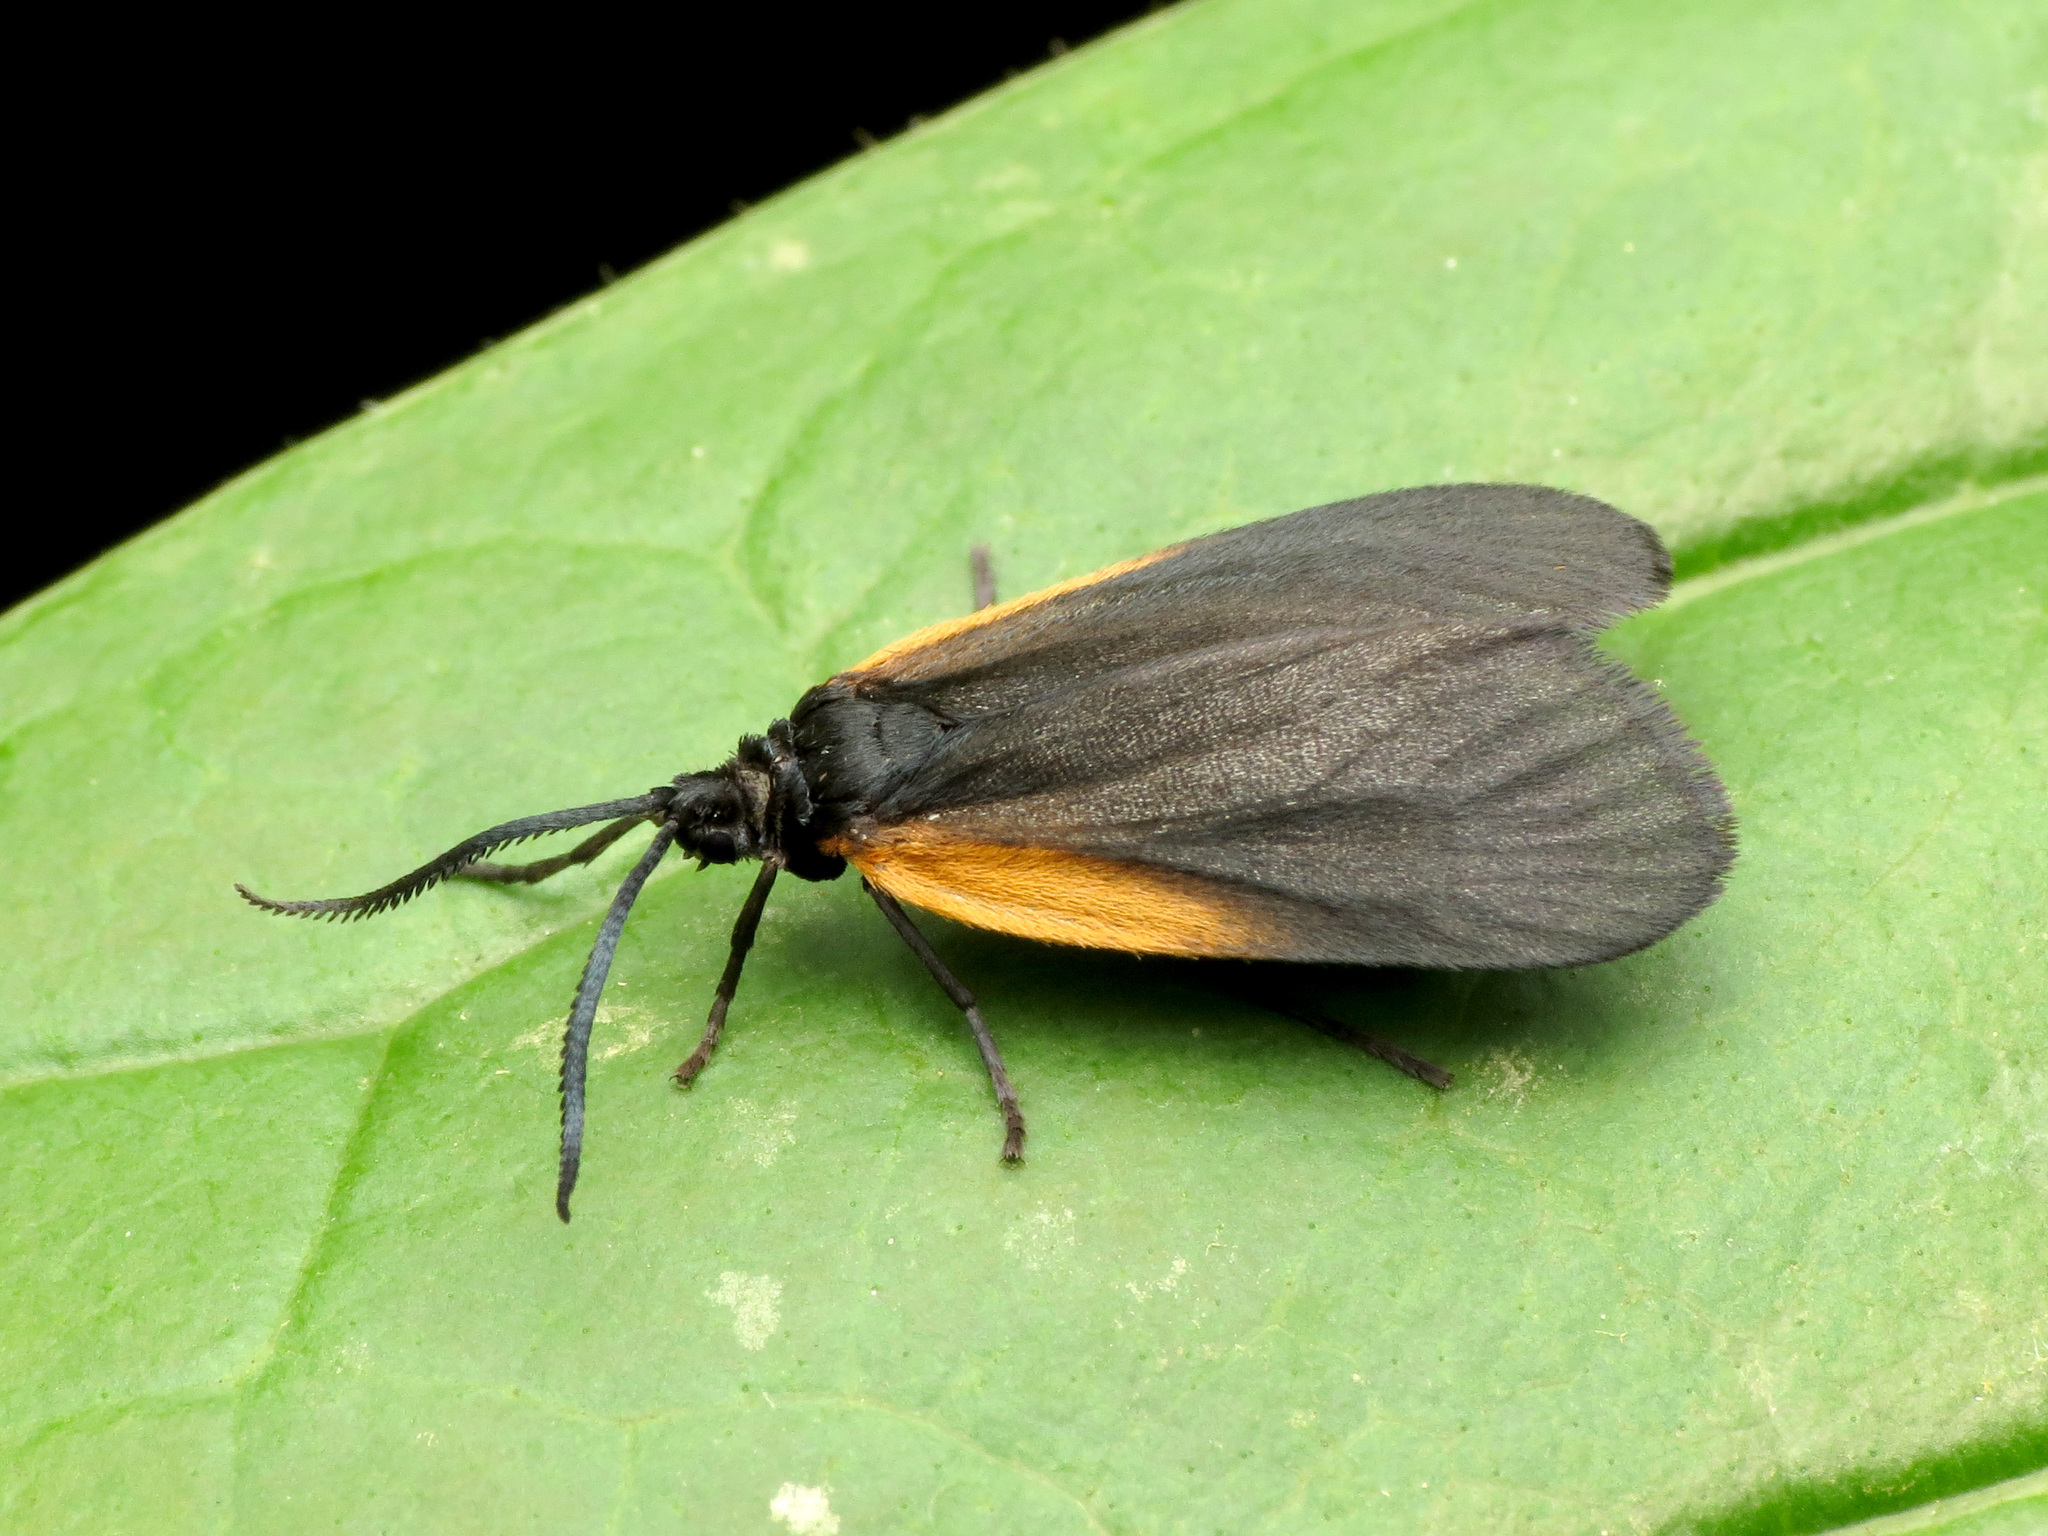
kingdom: Animalia
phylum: Arthropoda
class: Insecta
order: Lepidoptera
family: Zygaenidae
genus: Malthaca
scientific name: Malthaca dimidiata
